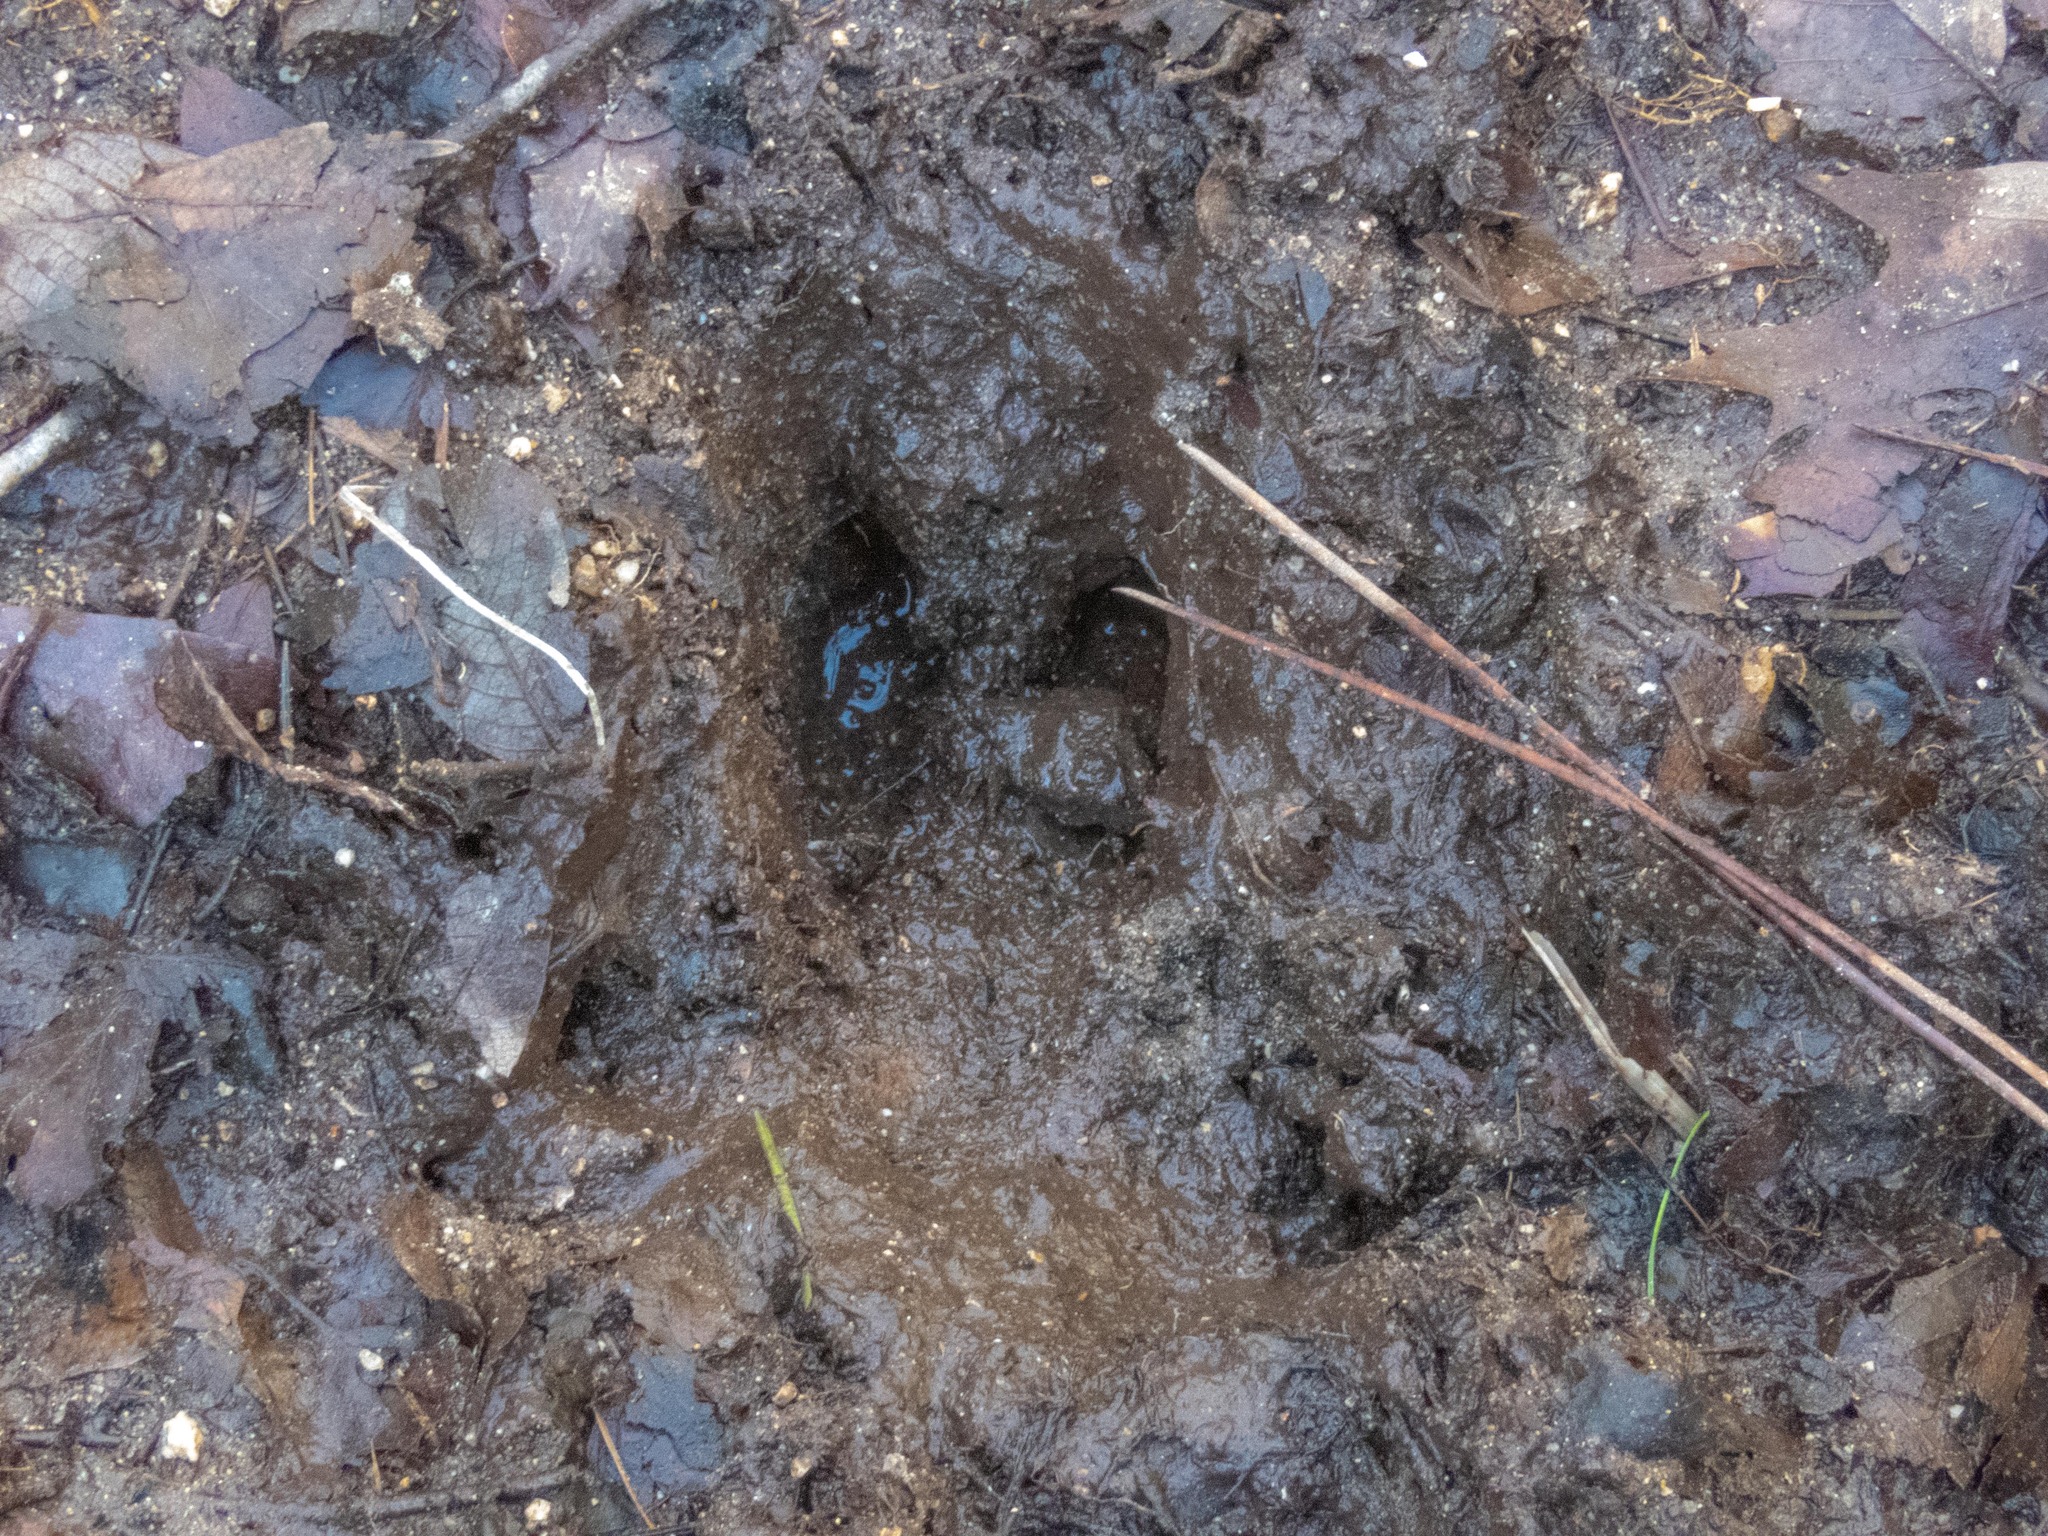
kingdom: Animalia
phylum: Chordata
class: Mammalia
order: Artiodactyla
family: Suidae
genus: Sus
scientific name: Sus scrofa
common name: Wild boar
